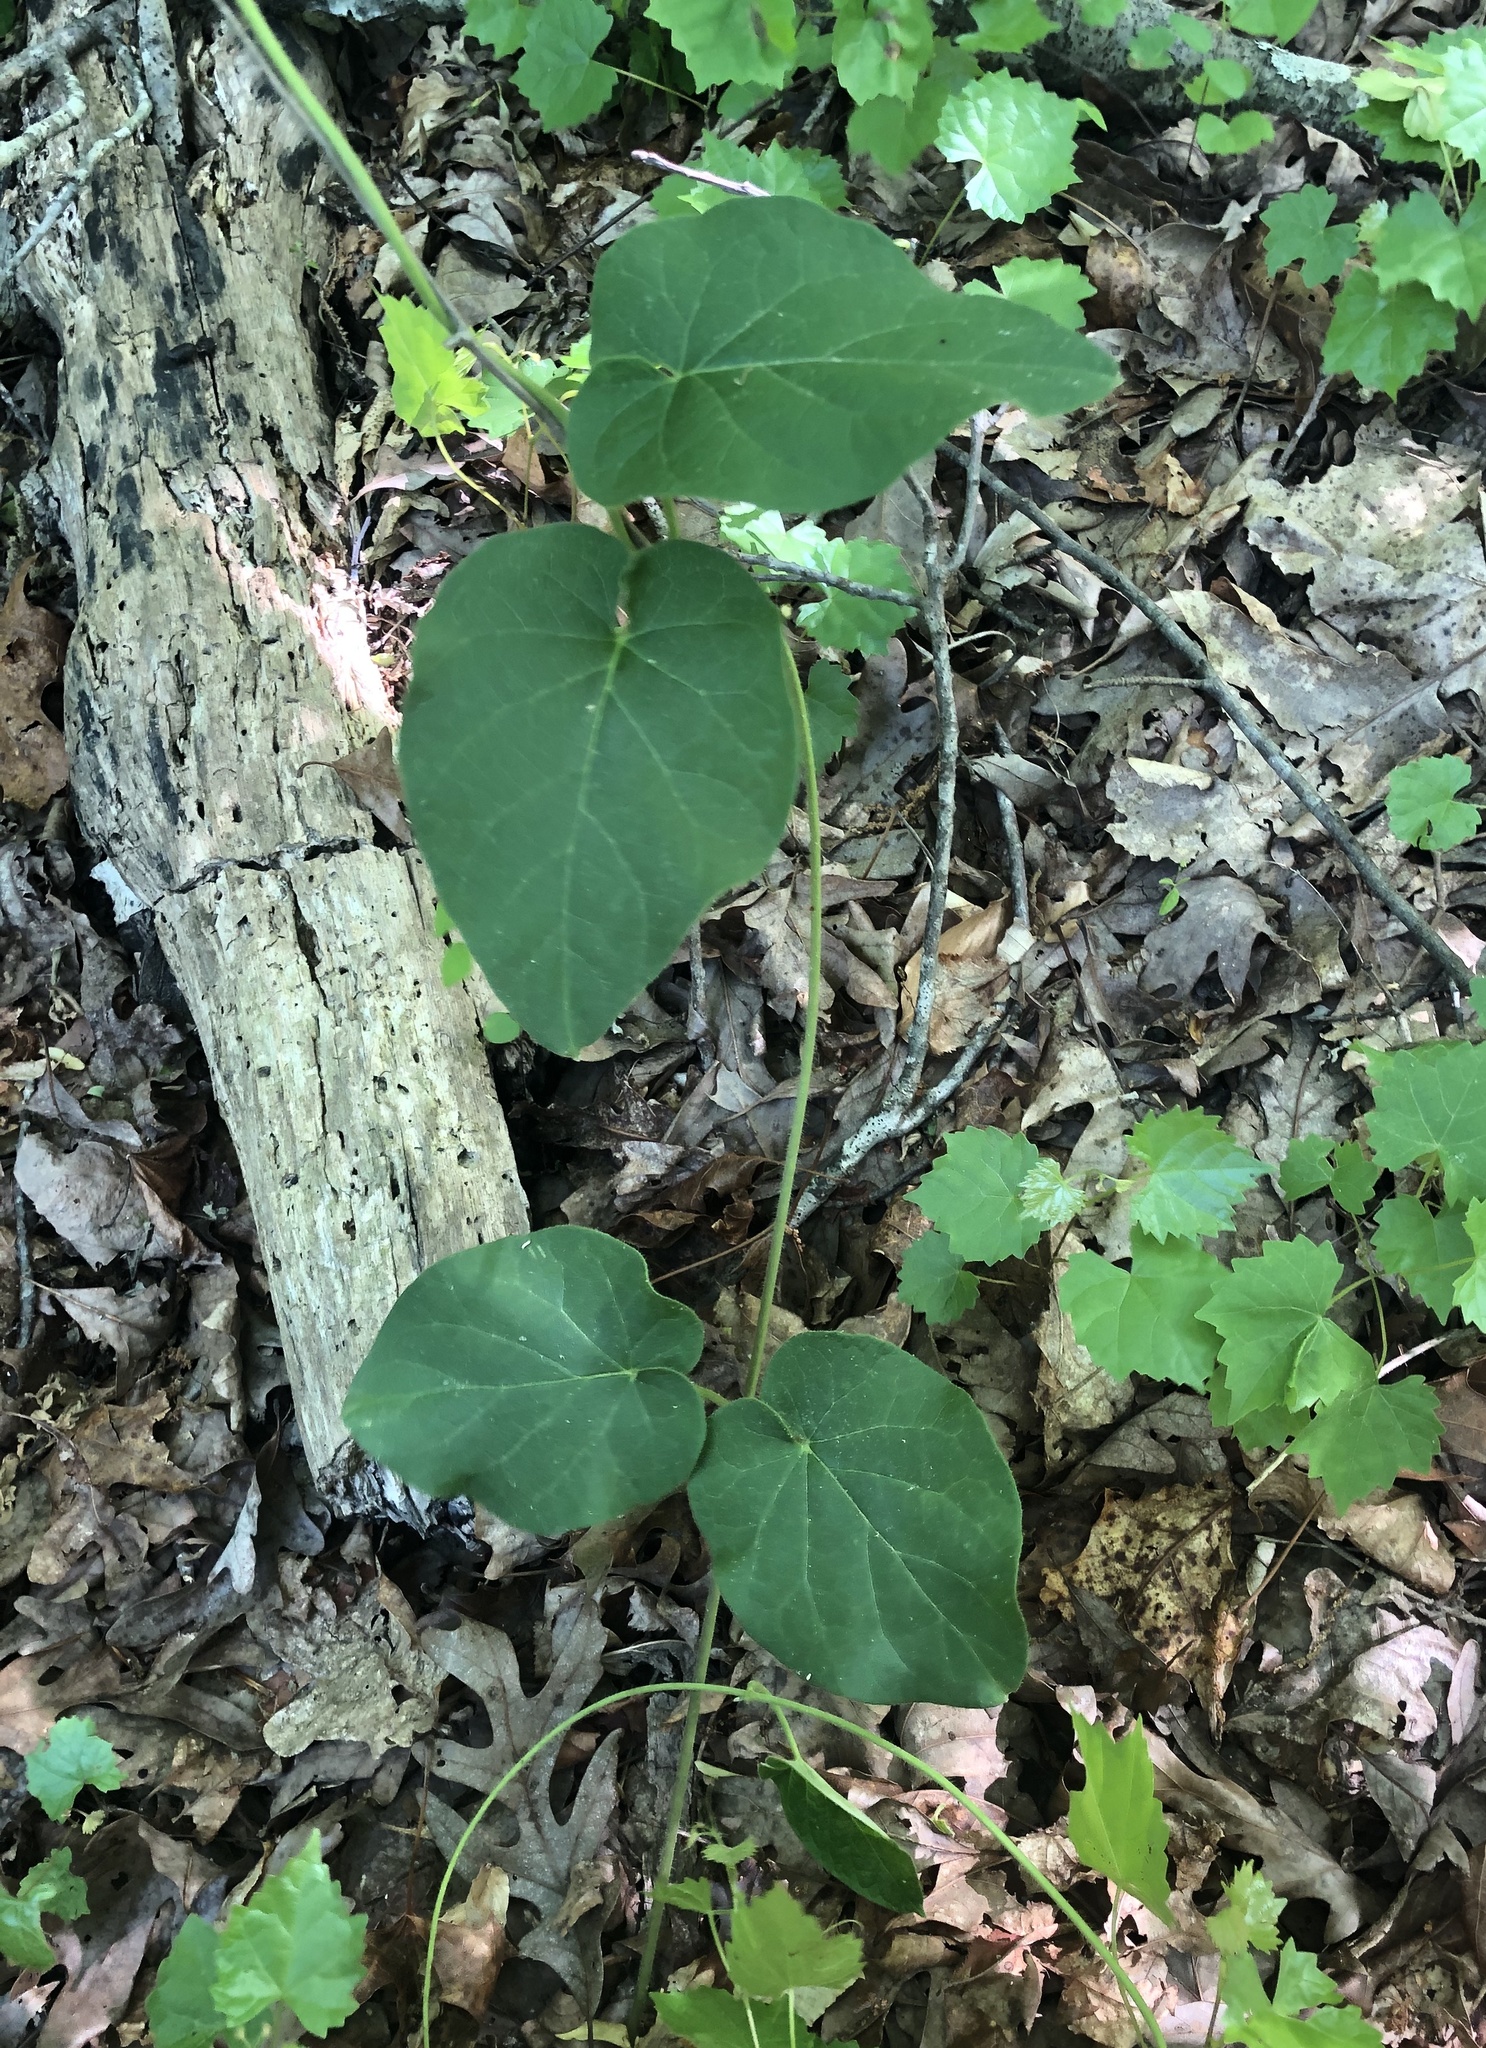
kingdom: Plantae
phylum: Tracheophyta
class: Magnoliopsida
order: Gentianales
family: Apocynaceae
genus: Matelea
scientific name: Matelea carolinensis
